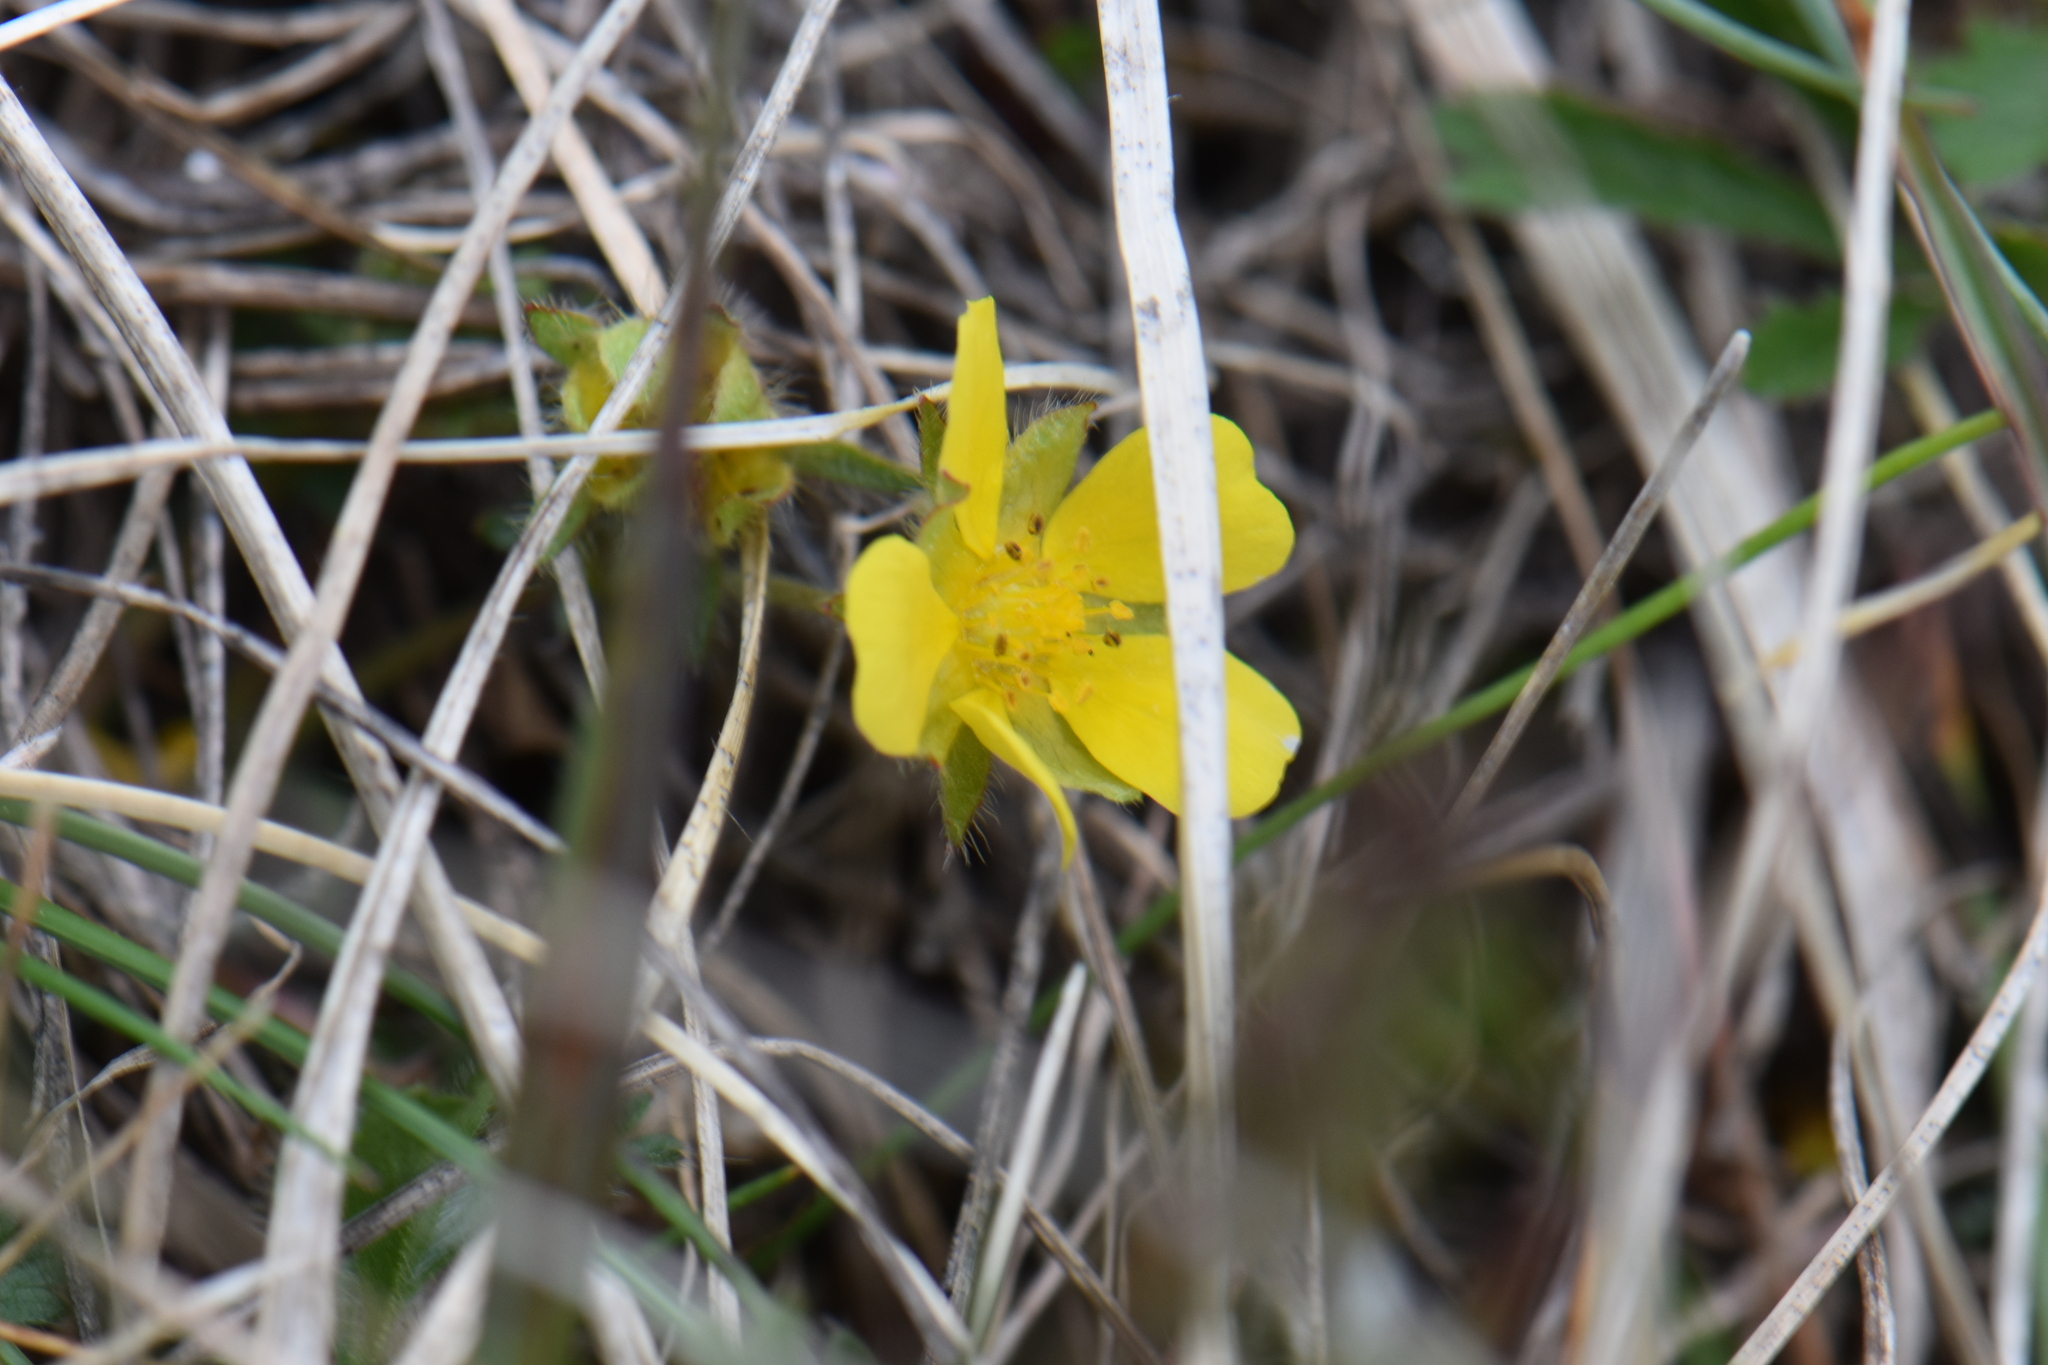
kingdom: Plantae
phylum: Tracheophyta
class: Magnoliopsida
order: Rosales
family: Rosaceae
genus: Potentilla
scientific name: Potentilla verna
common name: Spring cinquefoil
